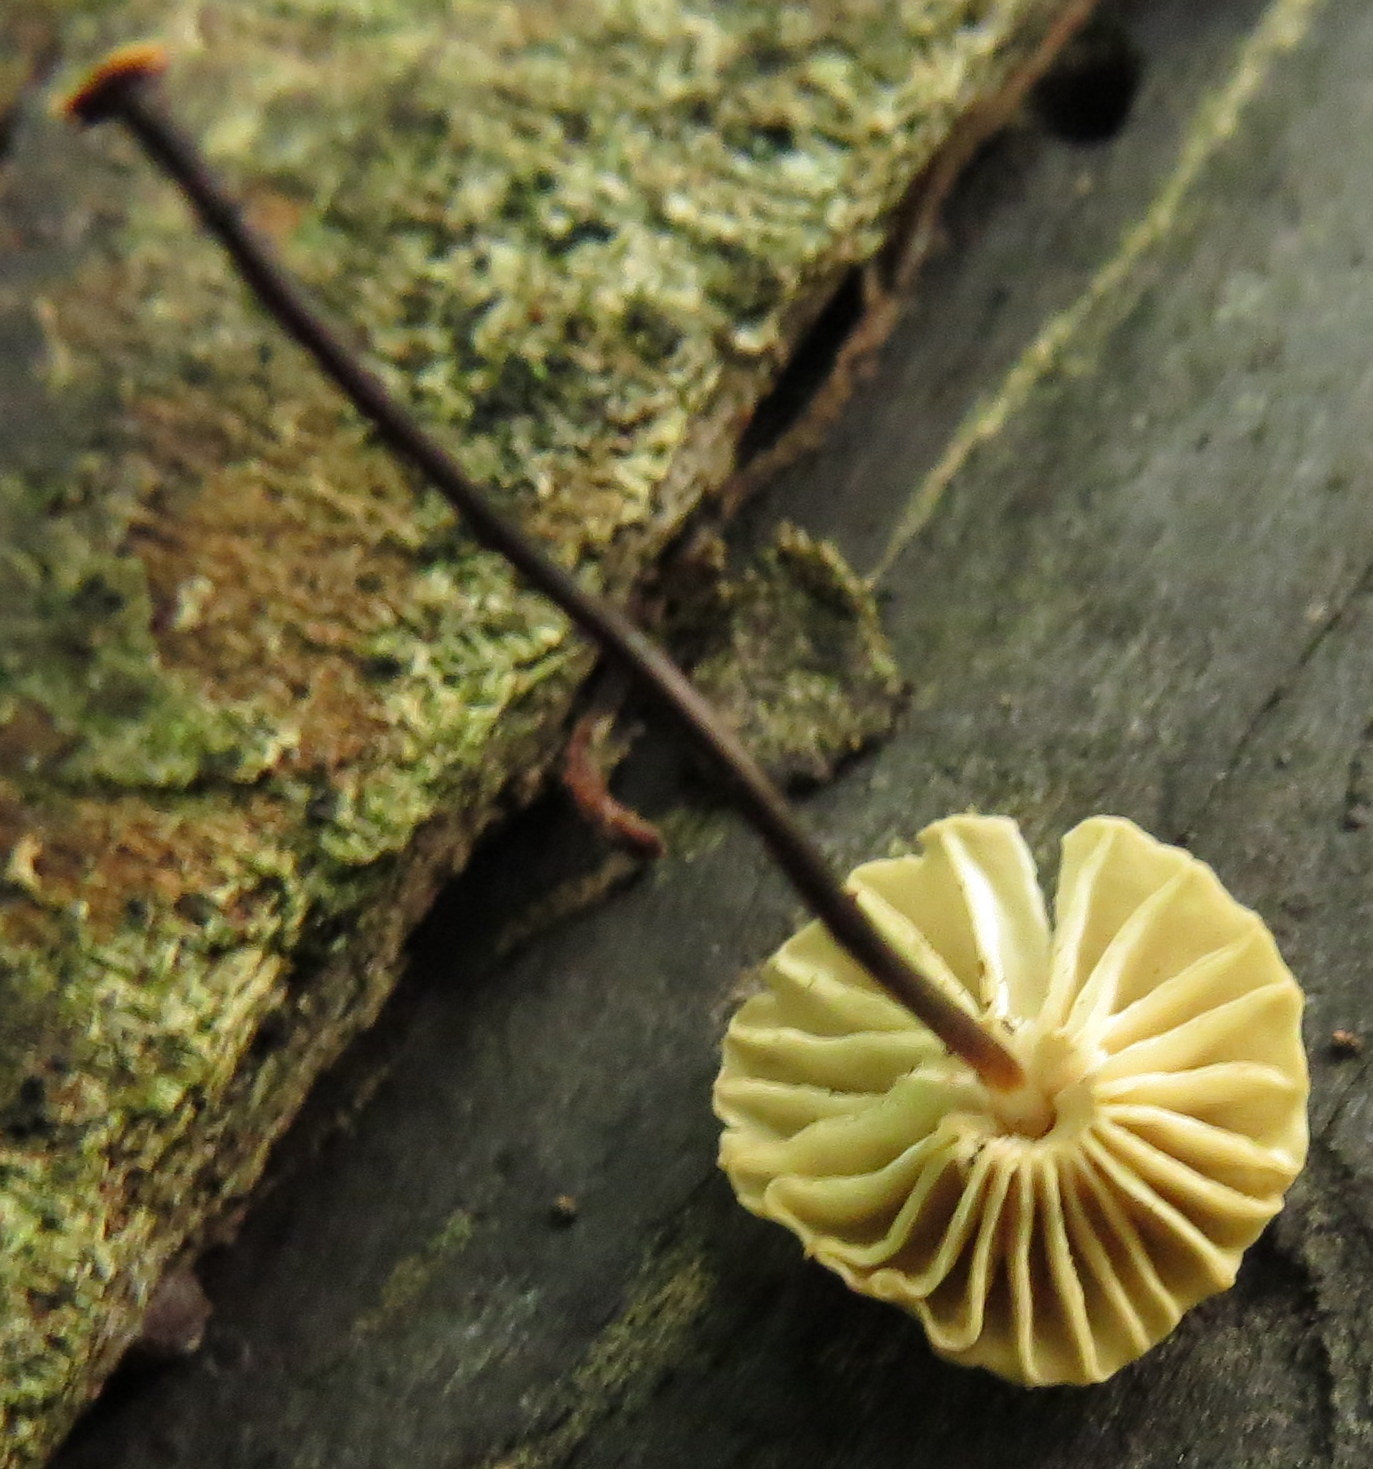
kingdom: Fungi
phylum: Basidiomycota
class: Agaricomycetes
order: Agaricales
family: Marasmiaceae
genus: Marasmius
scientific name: Marasmius rotula
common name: Collared parachute
